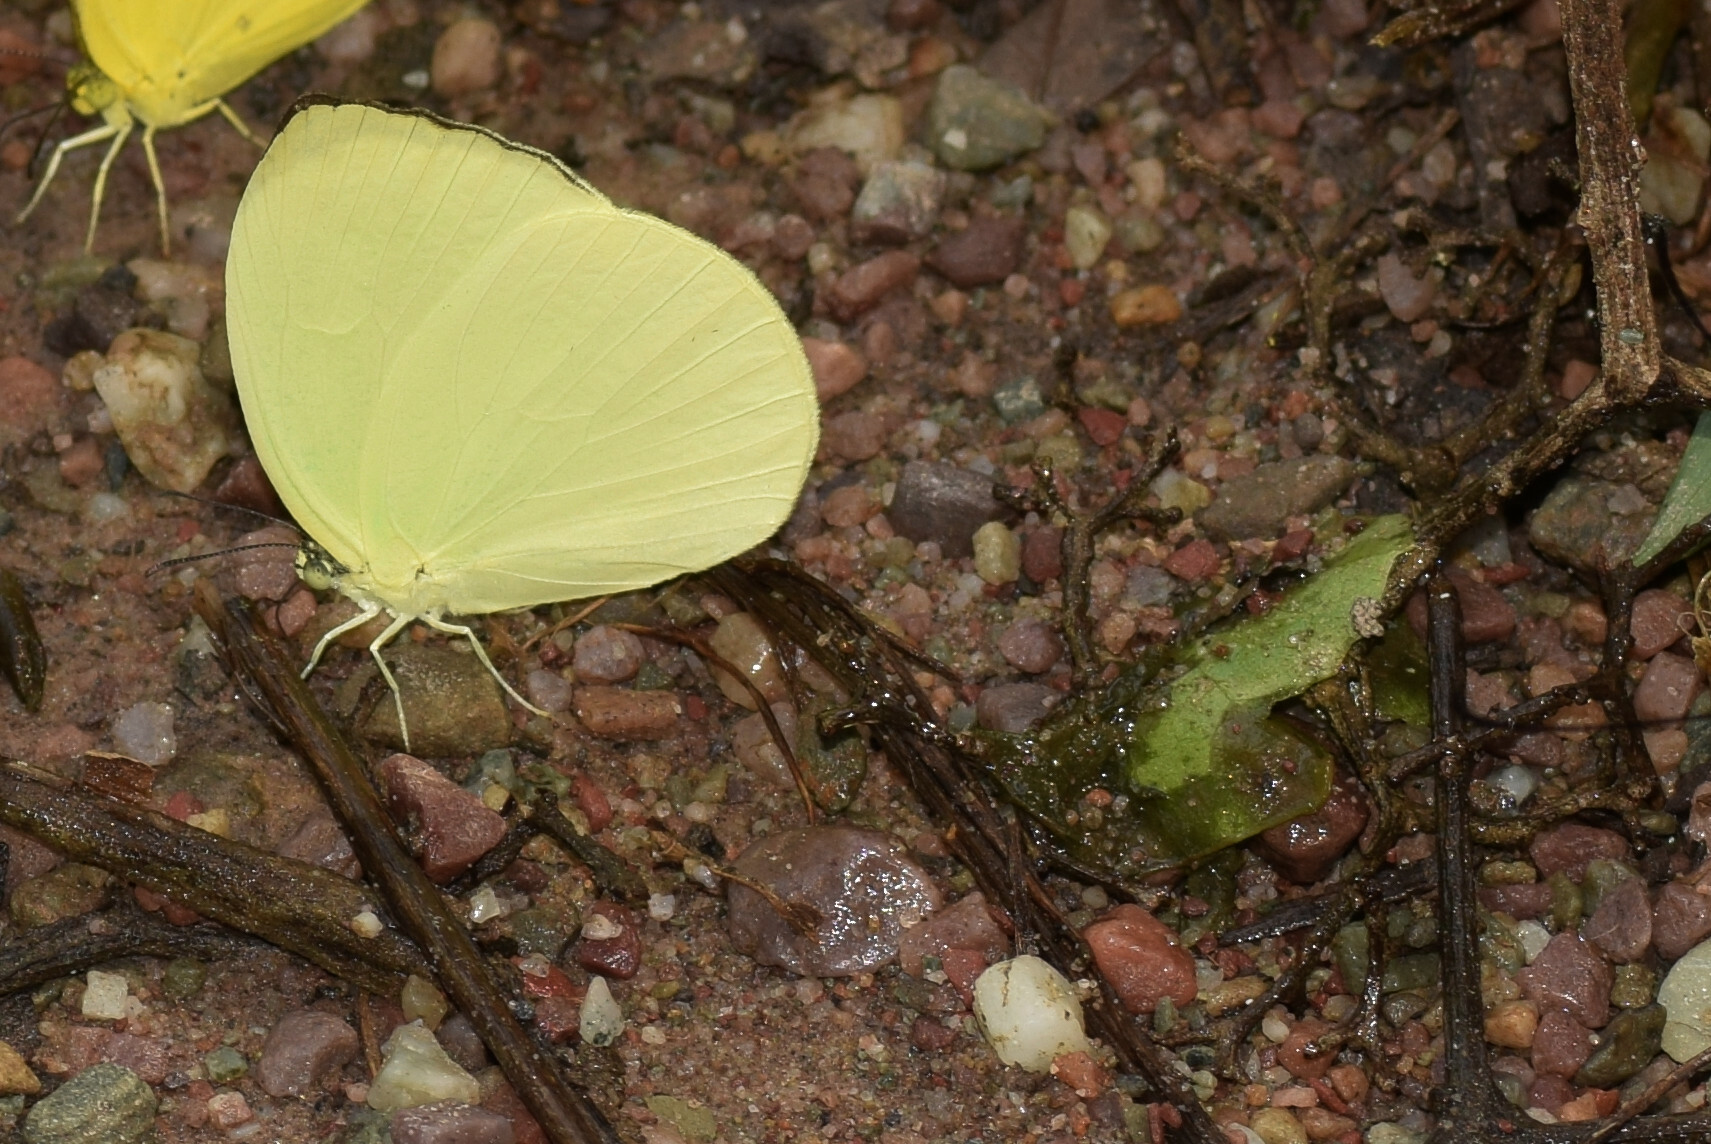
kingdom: Animalia
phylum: Arthropoda
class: Insecta
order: Lepidoptera
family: Pieridae
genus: Gandaca
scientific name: Gandaca harina
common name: Tree yellow
